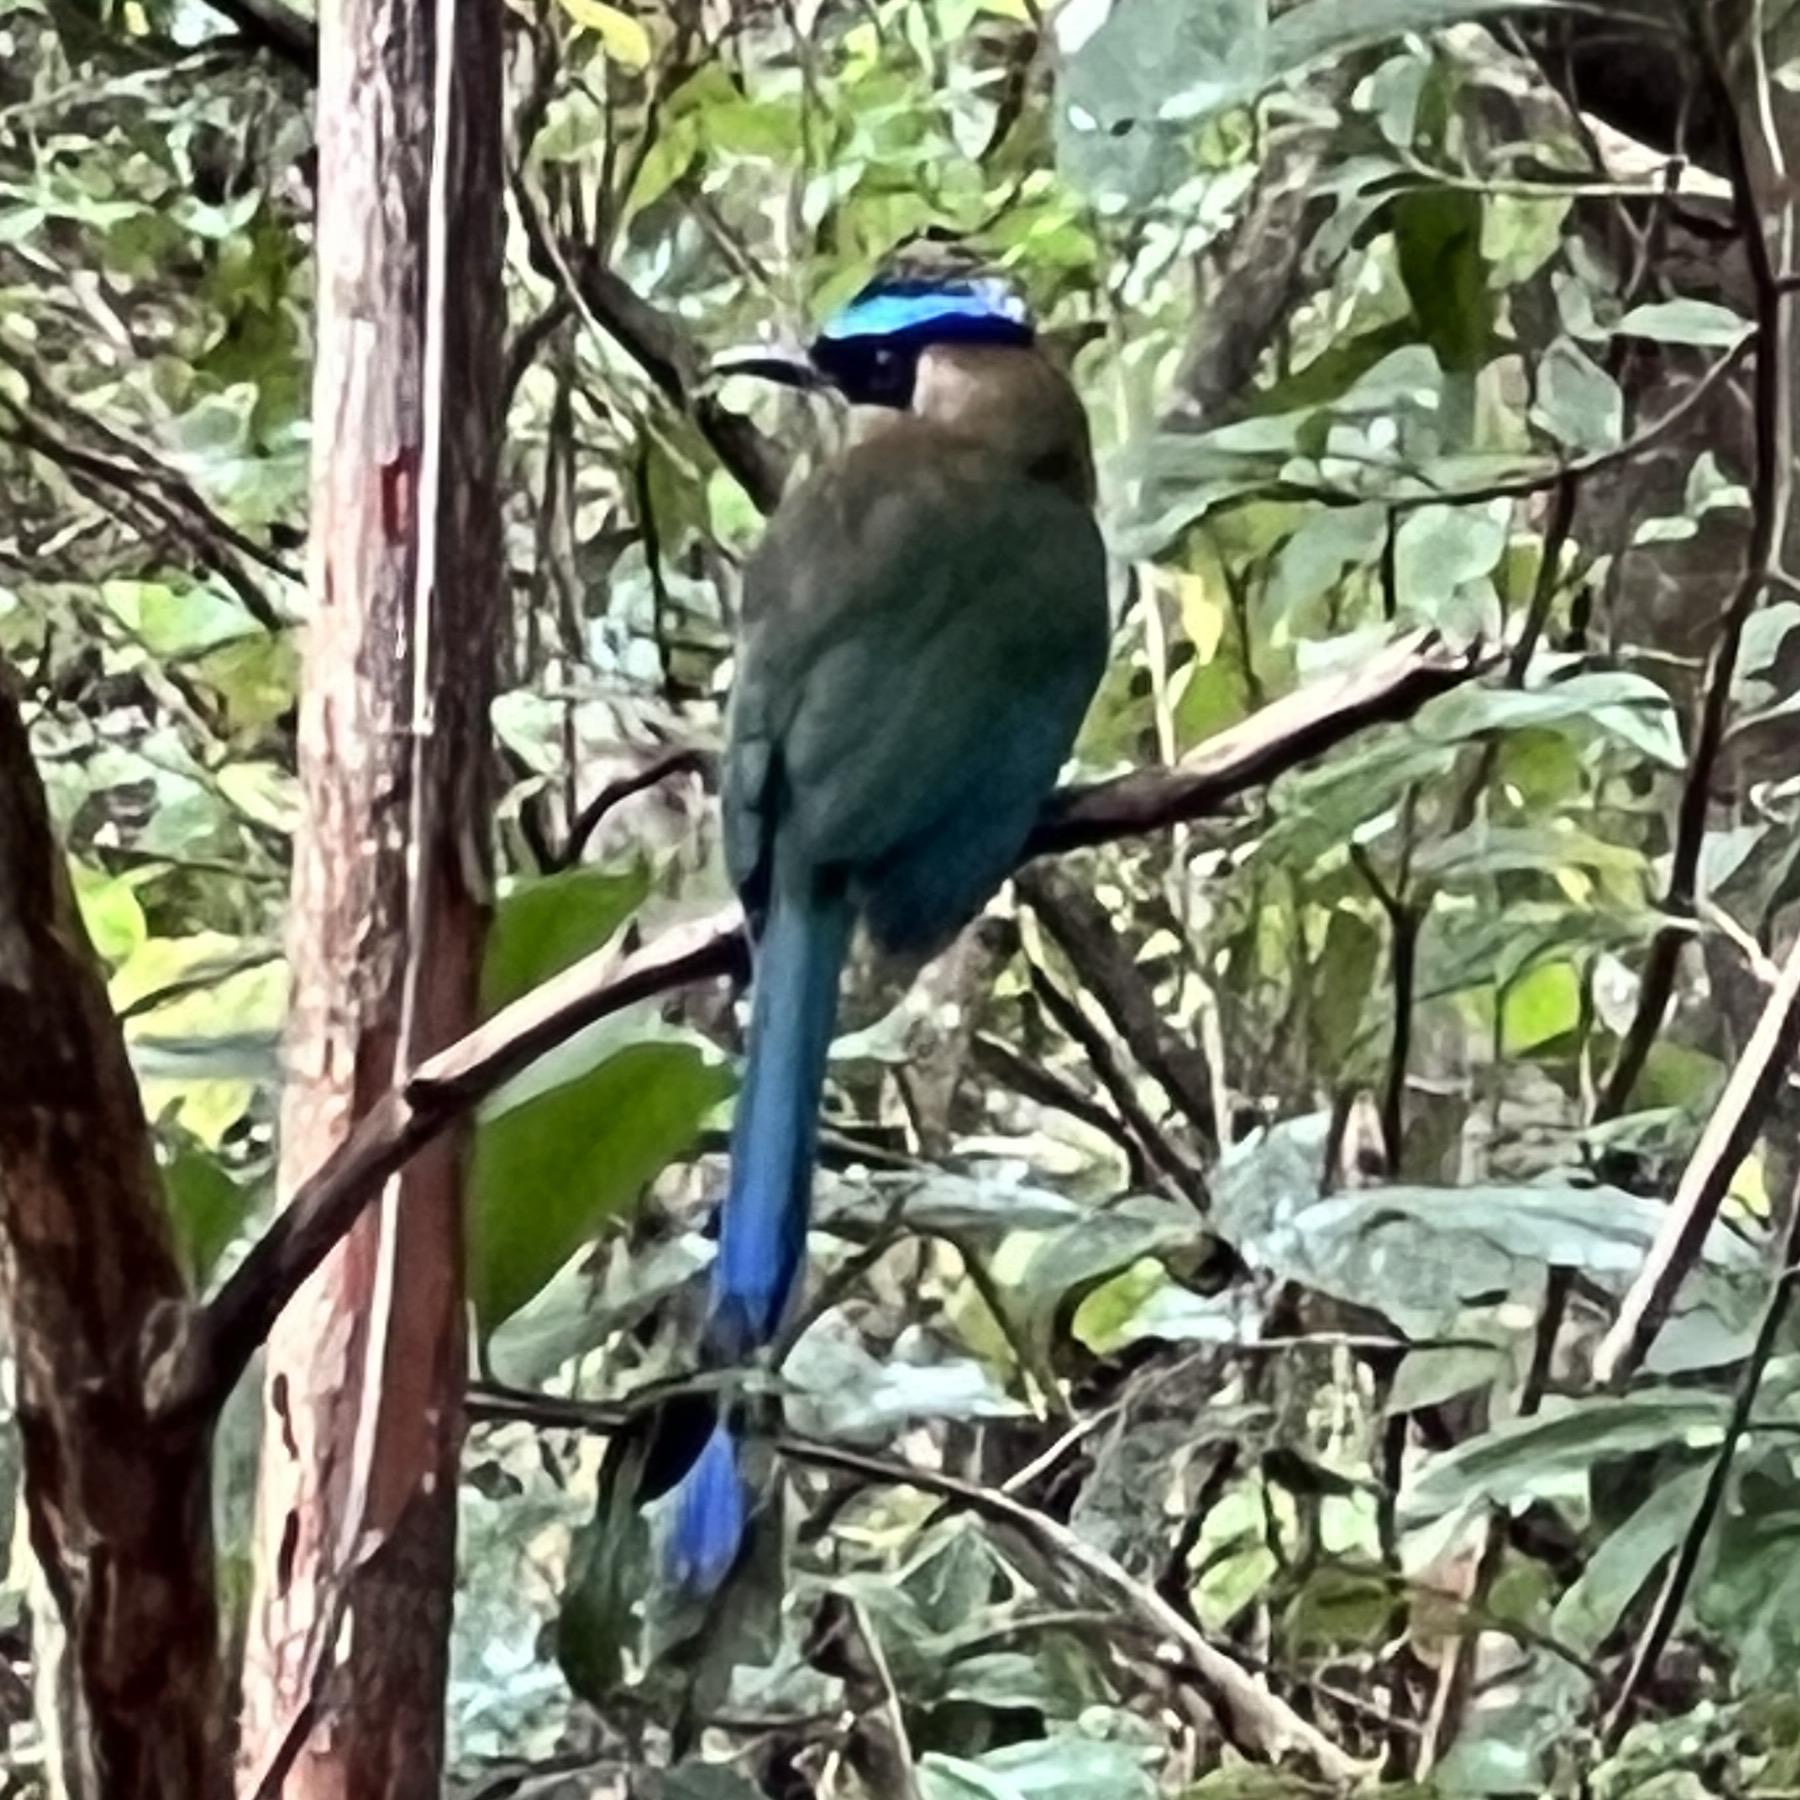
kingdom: Animalia
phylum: Chordata
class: Aves
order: Coraciiformes
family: Momotidae
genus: Momotus
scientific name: Momotus lessonii
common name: Lesson's motmot
